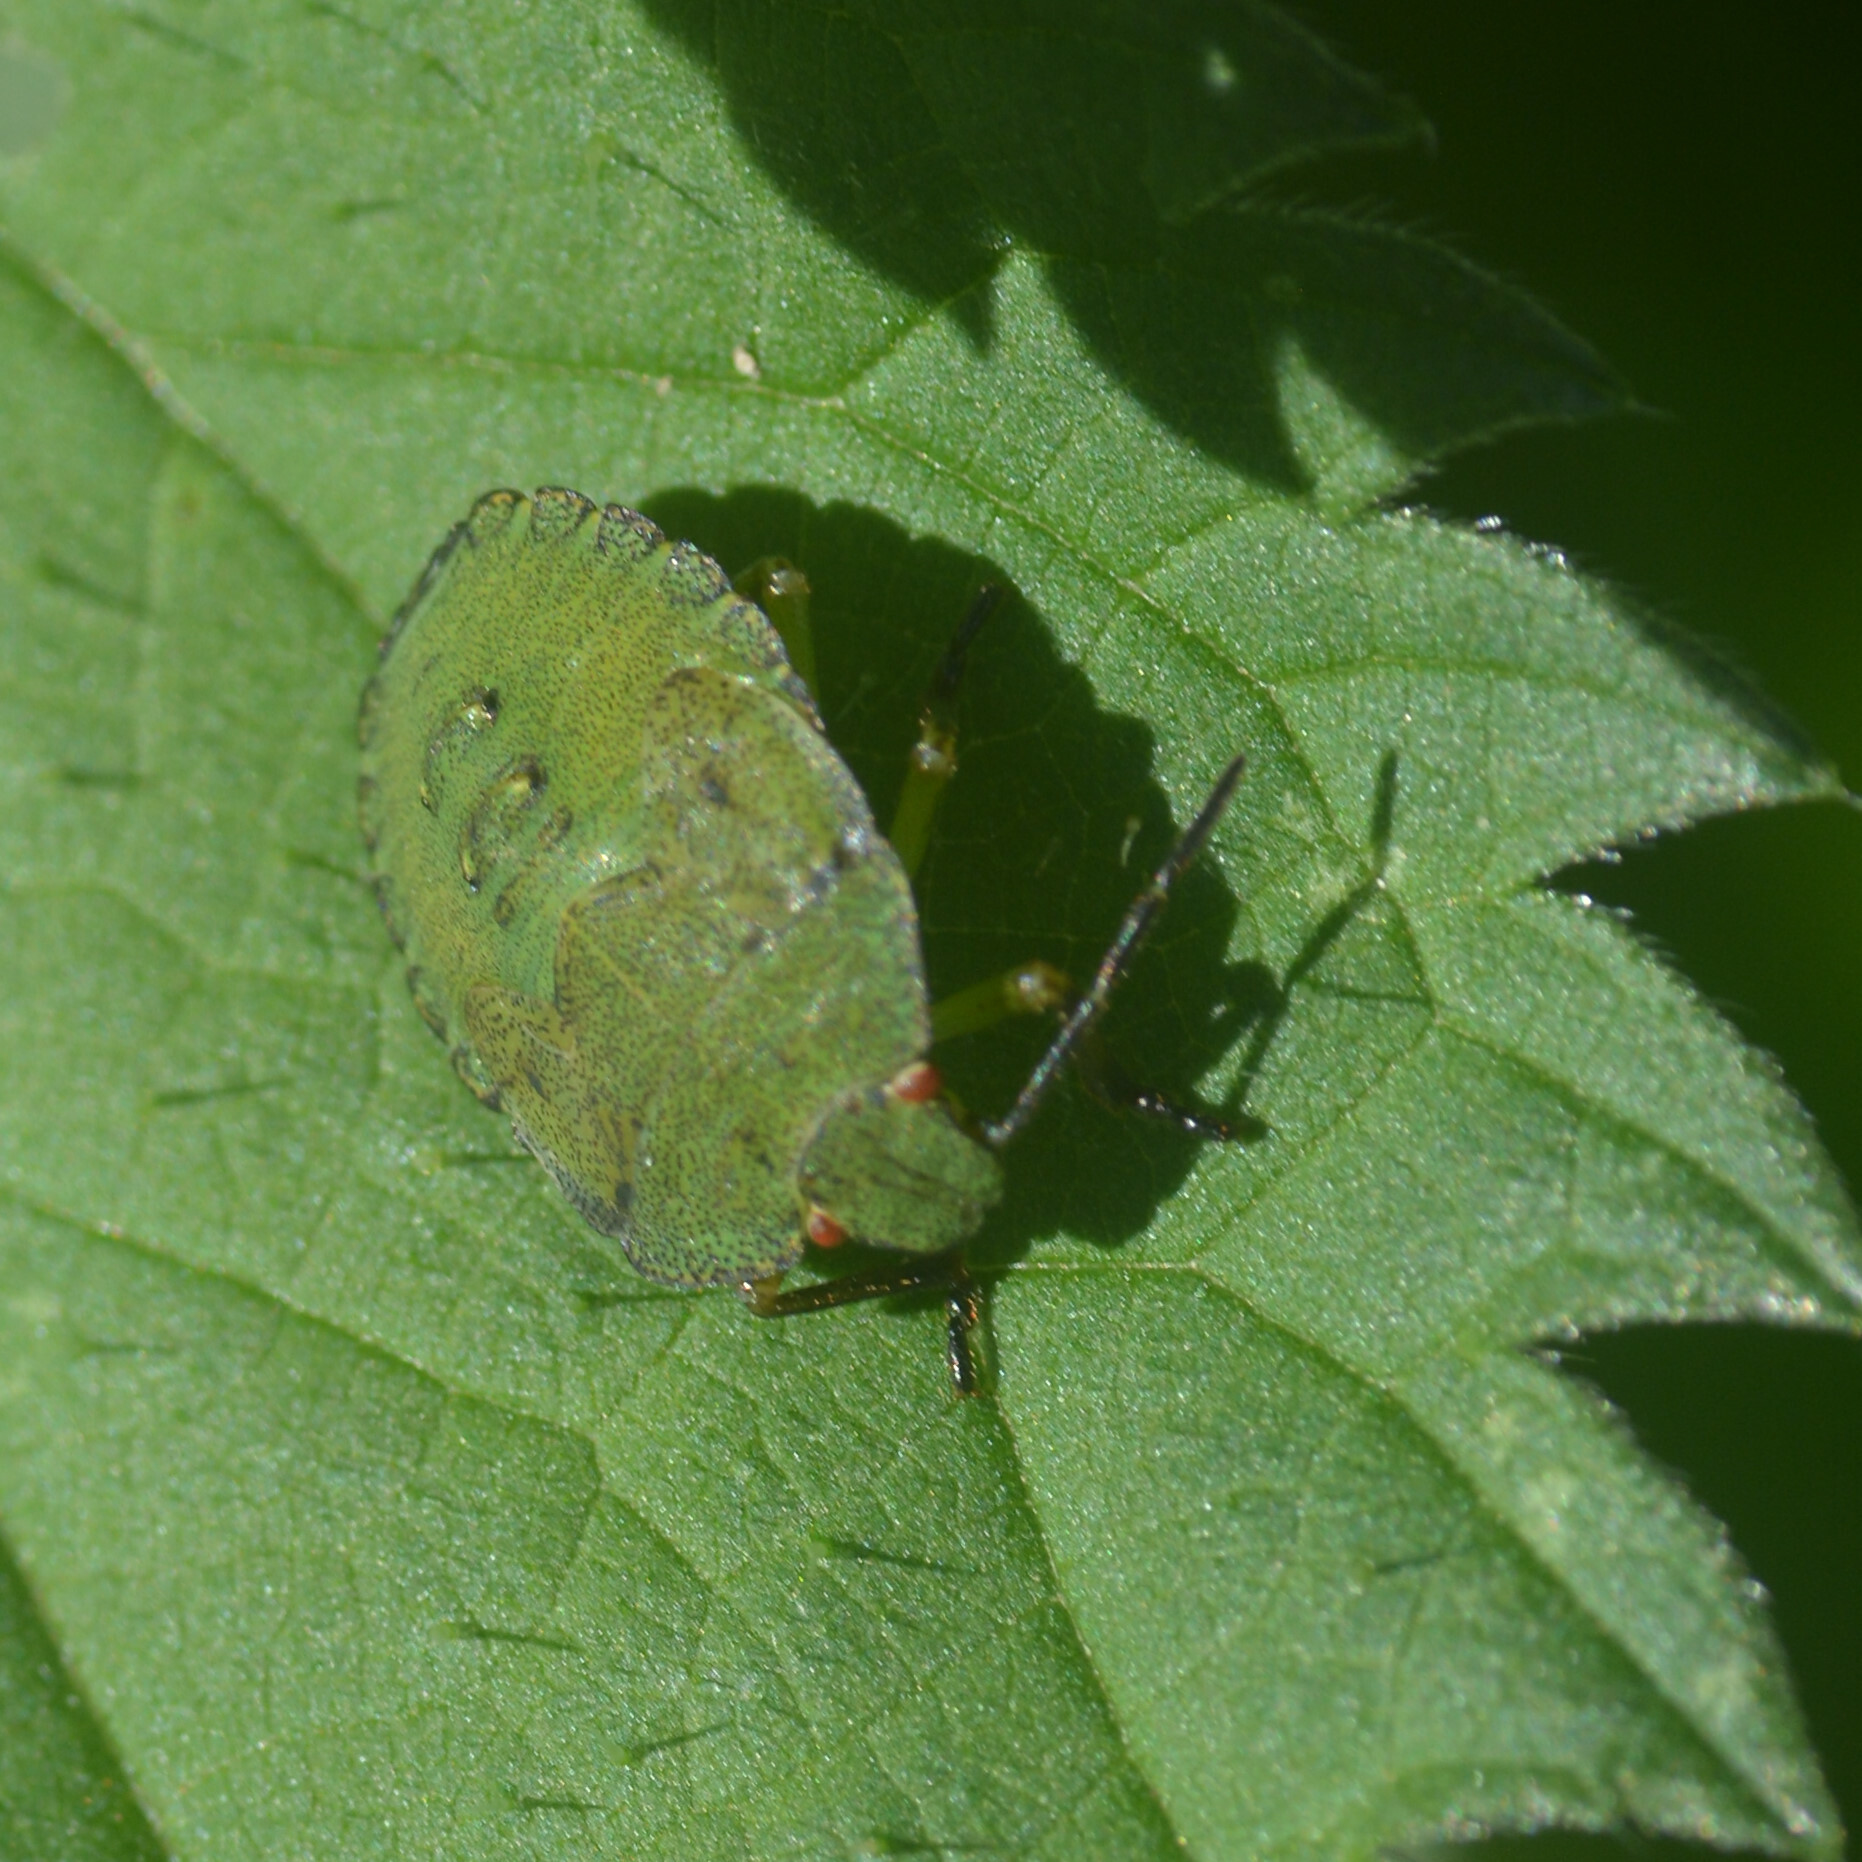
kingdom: Animalia
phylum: Arthropoda
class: Insecta
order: Hemiptera
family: Pentatomidae
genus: Palomena
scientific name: Palomena prasina
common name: Green shieldbug
